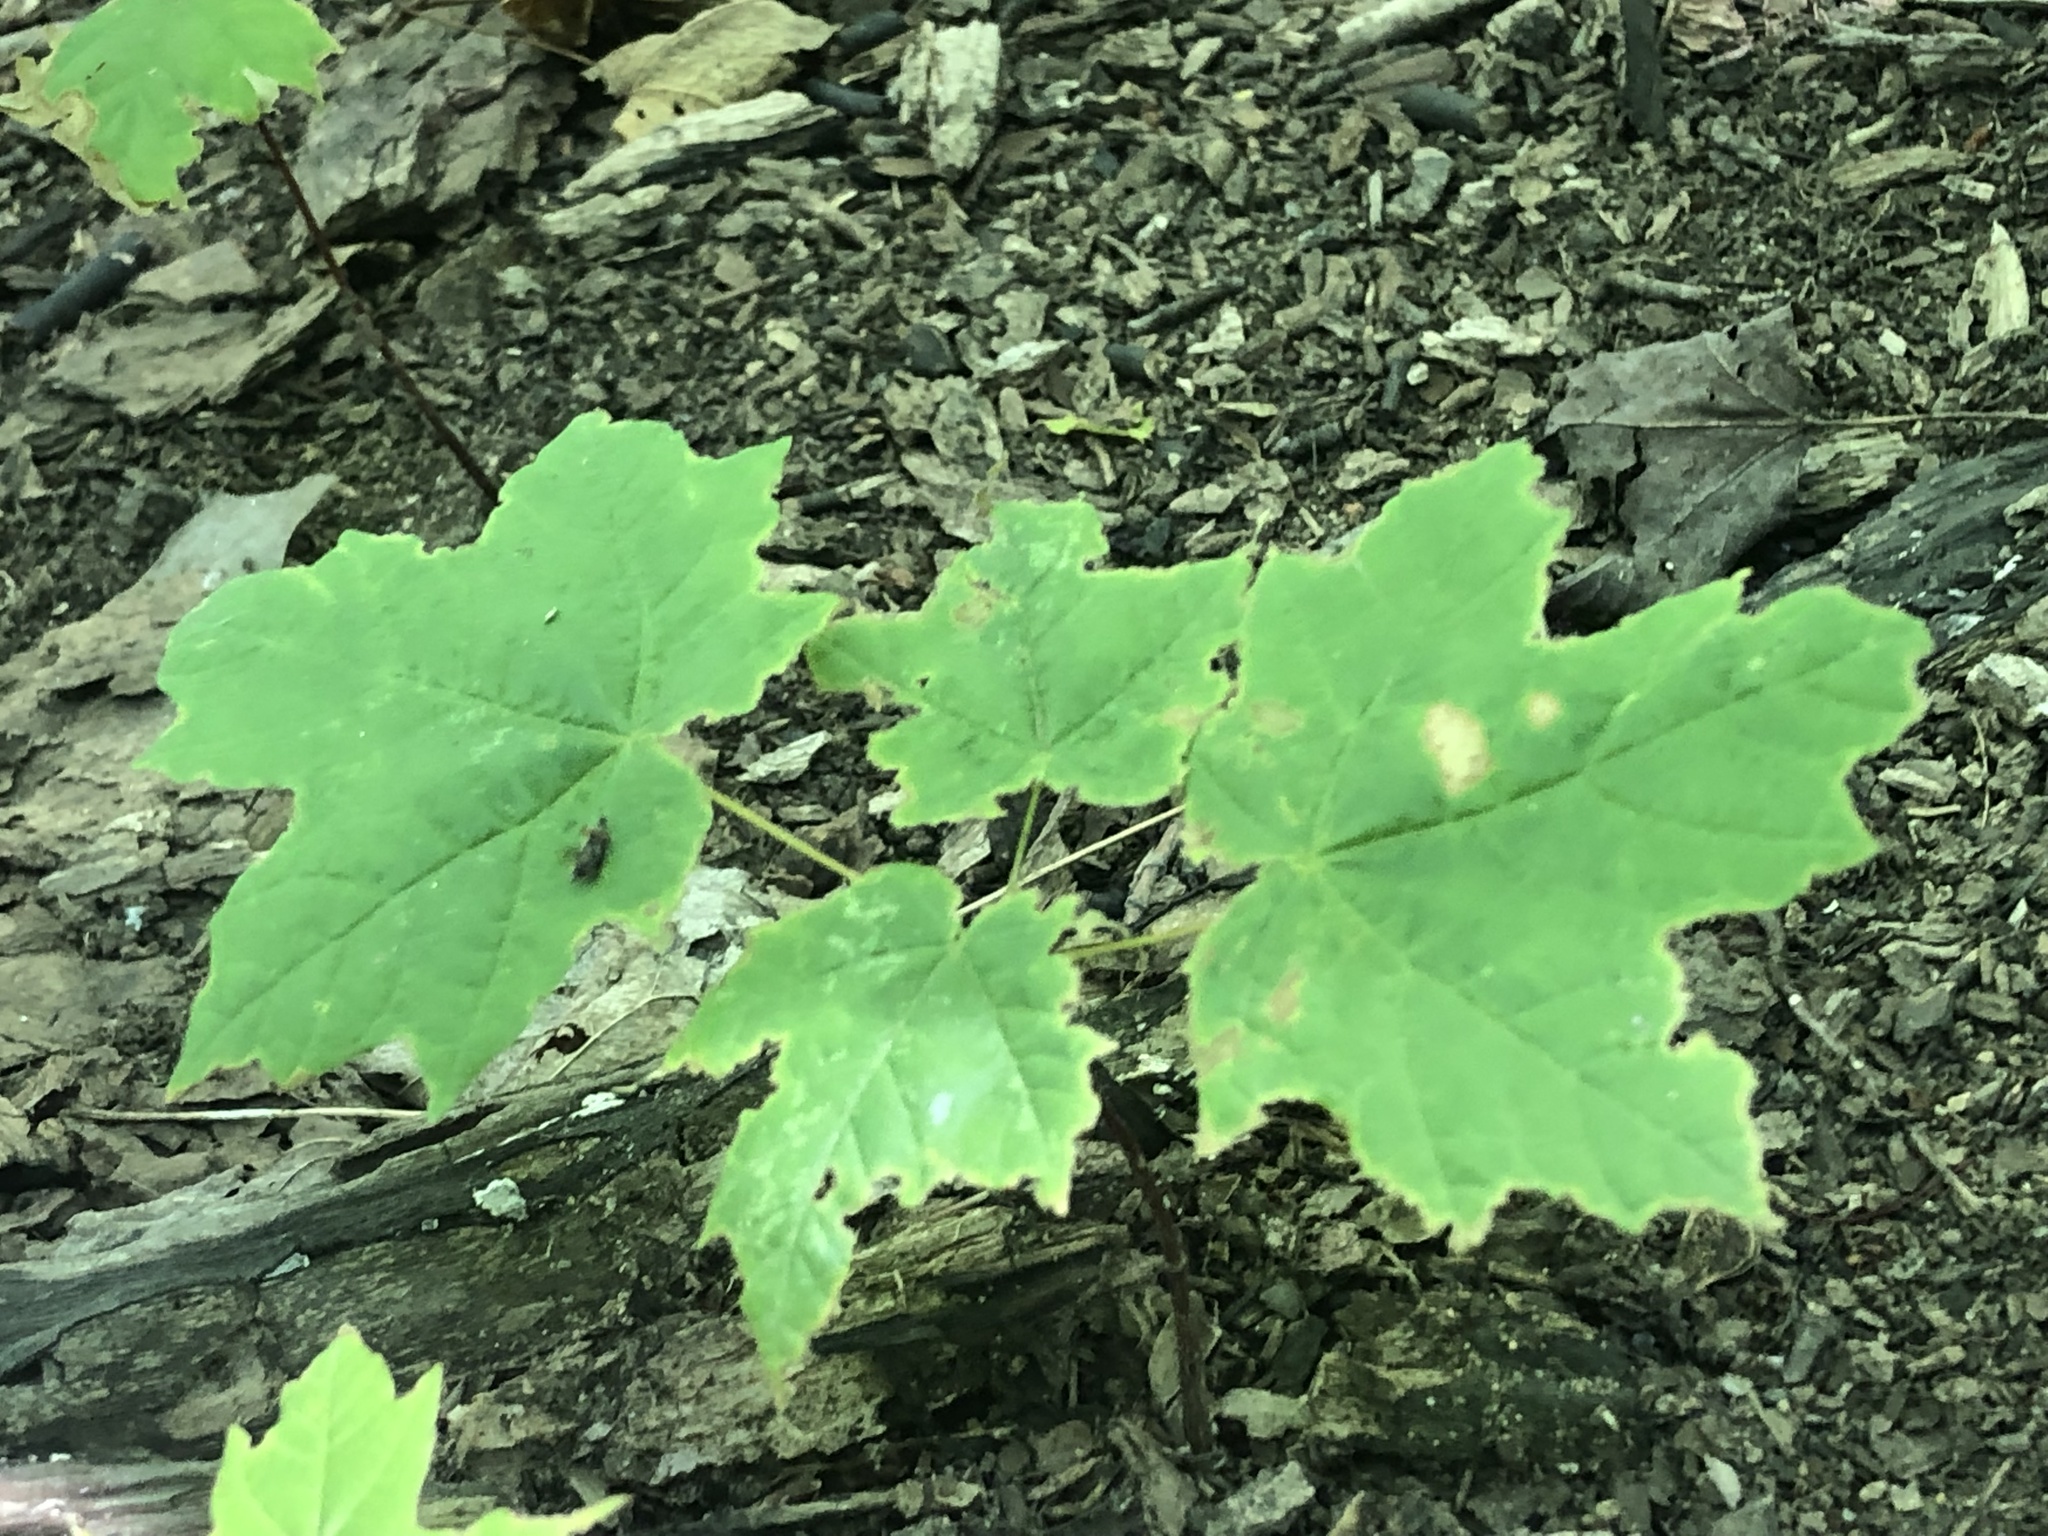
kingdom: Plantae
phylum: Tracheophyta
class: Magnoliopsida
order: Sapindales
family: Sapindaceae
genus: Acer
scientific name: Acer saccharum
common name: Sugar maple
